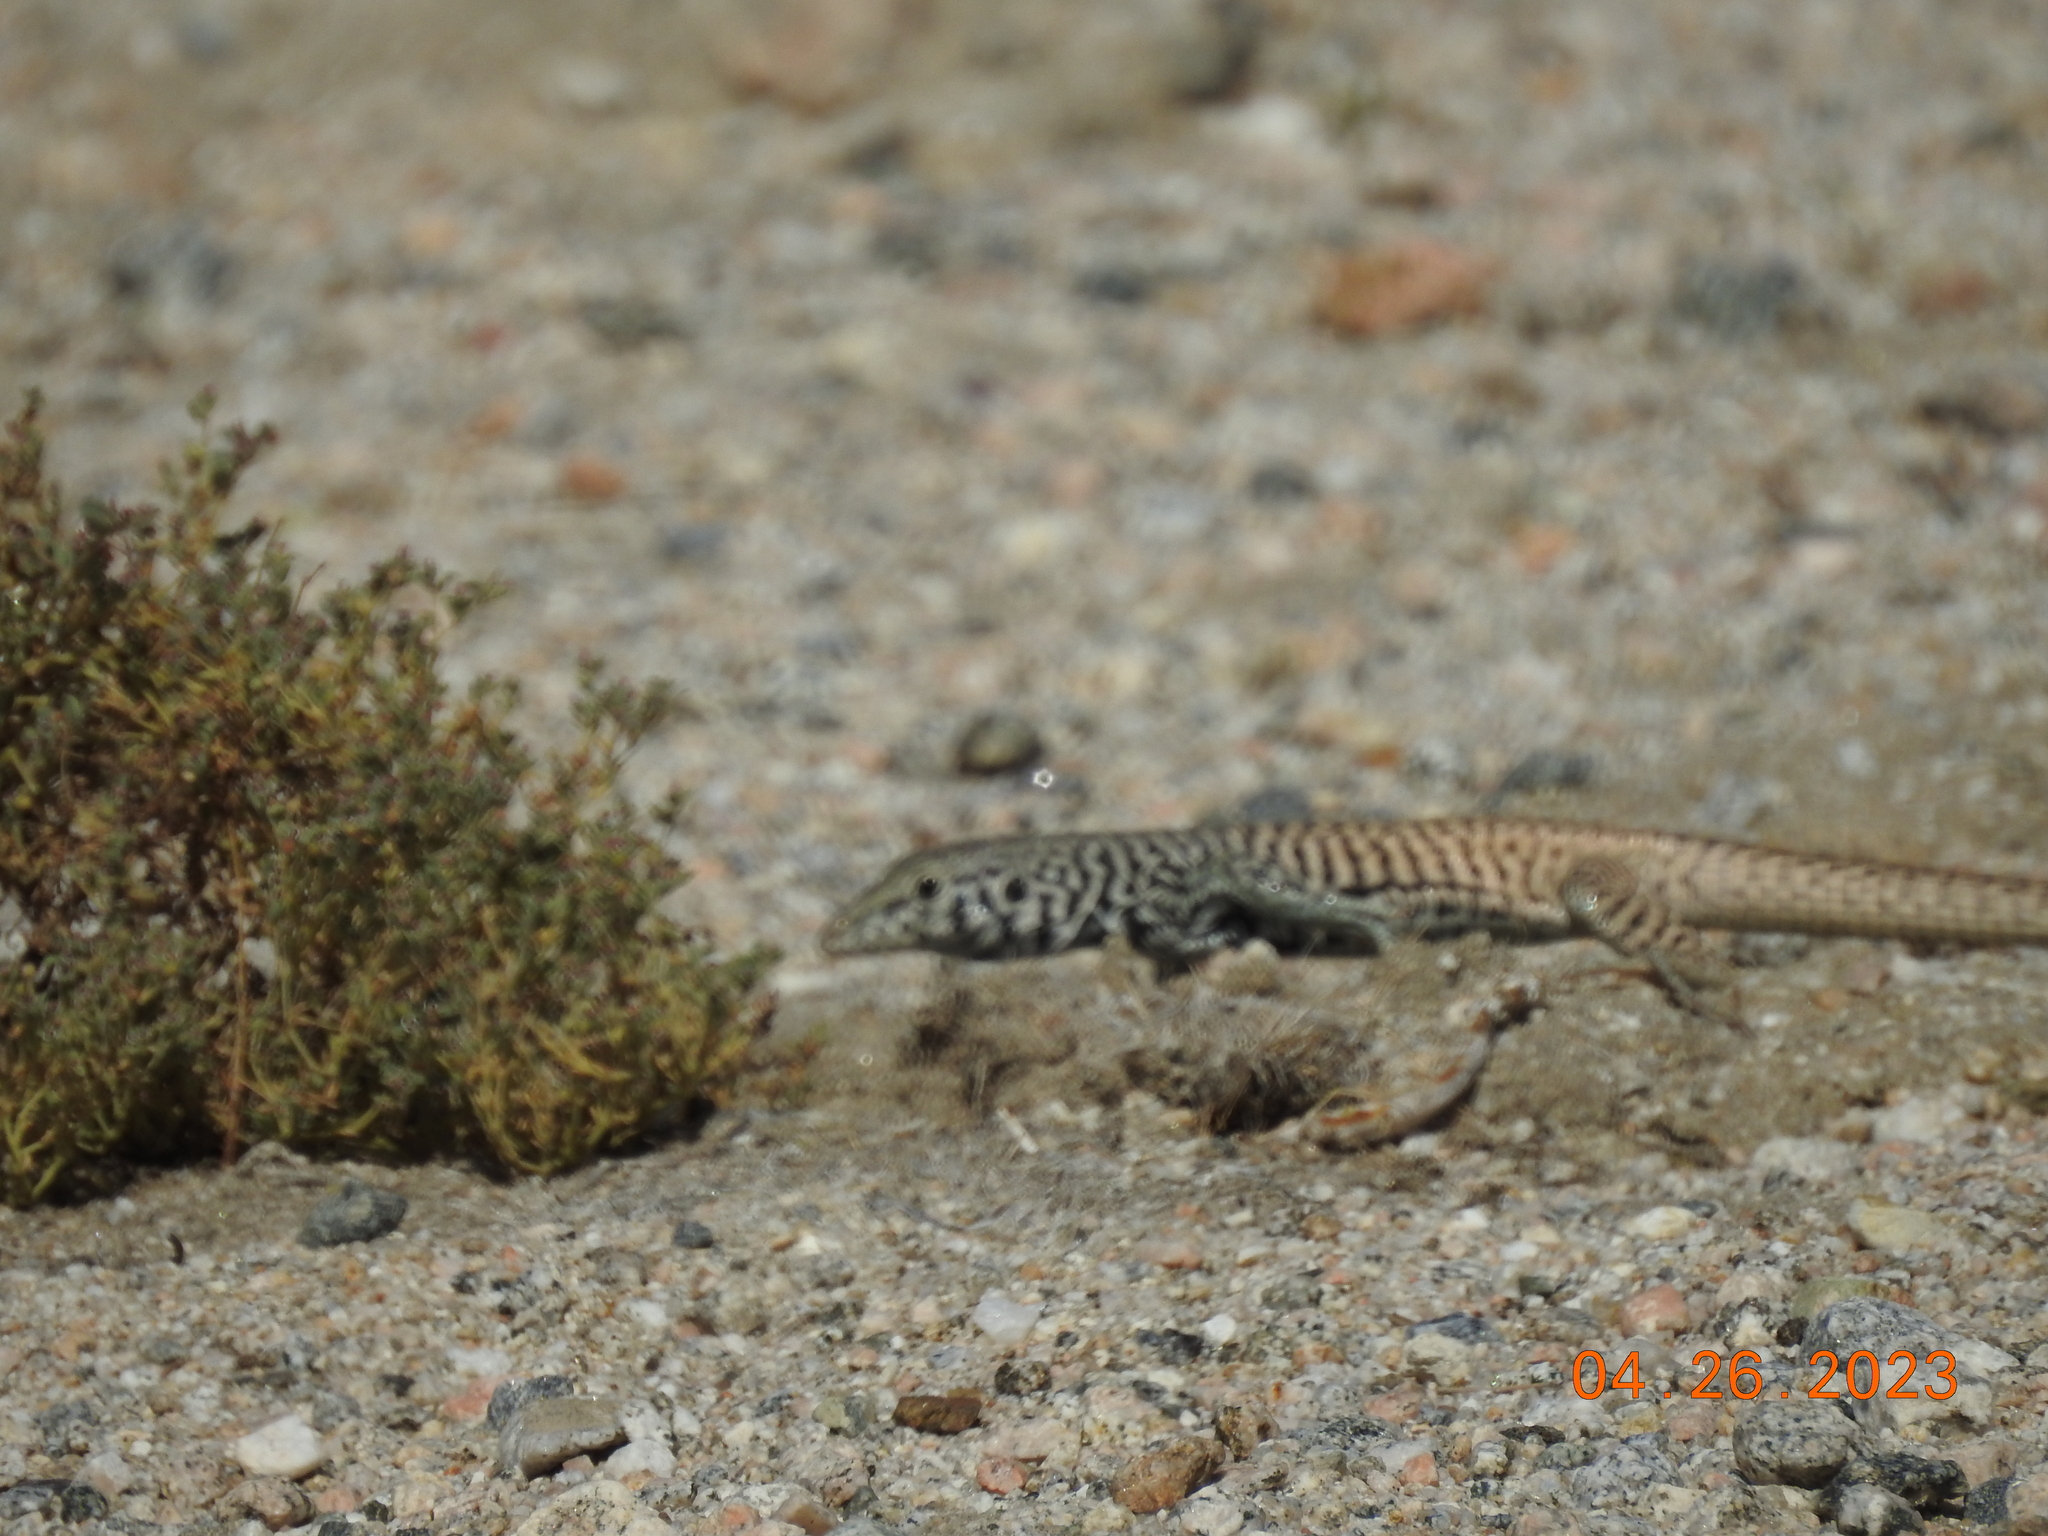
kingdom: Animalia
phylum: Chordata
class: Squamata
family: Teiidae
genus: Aspidoscelis
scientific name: Aspidoscelis tigris
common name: Tiger whiptail
